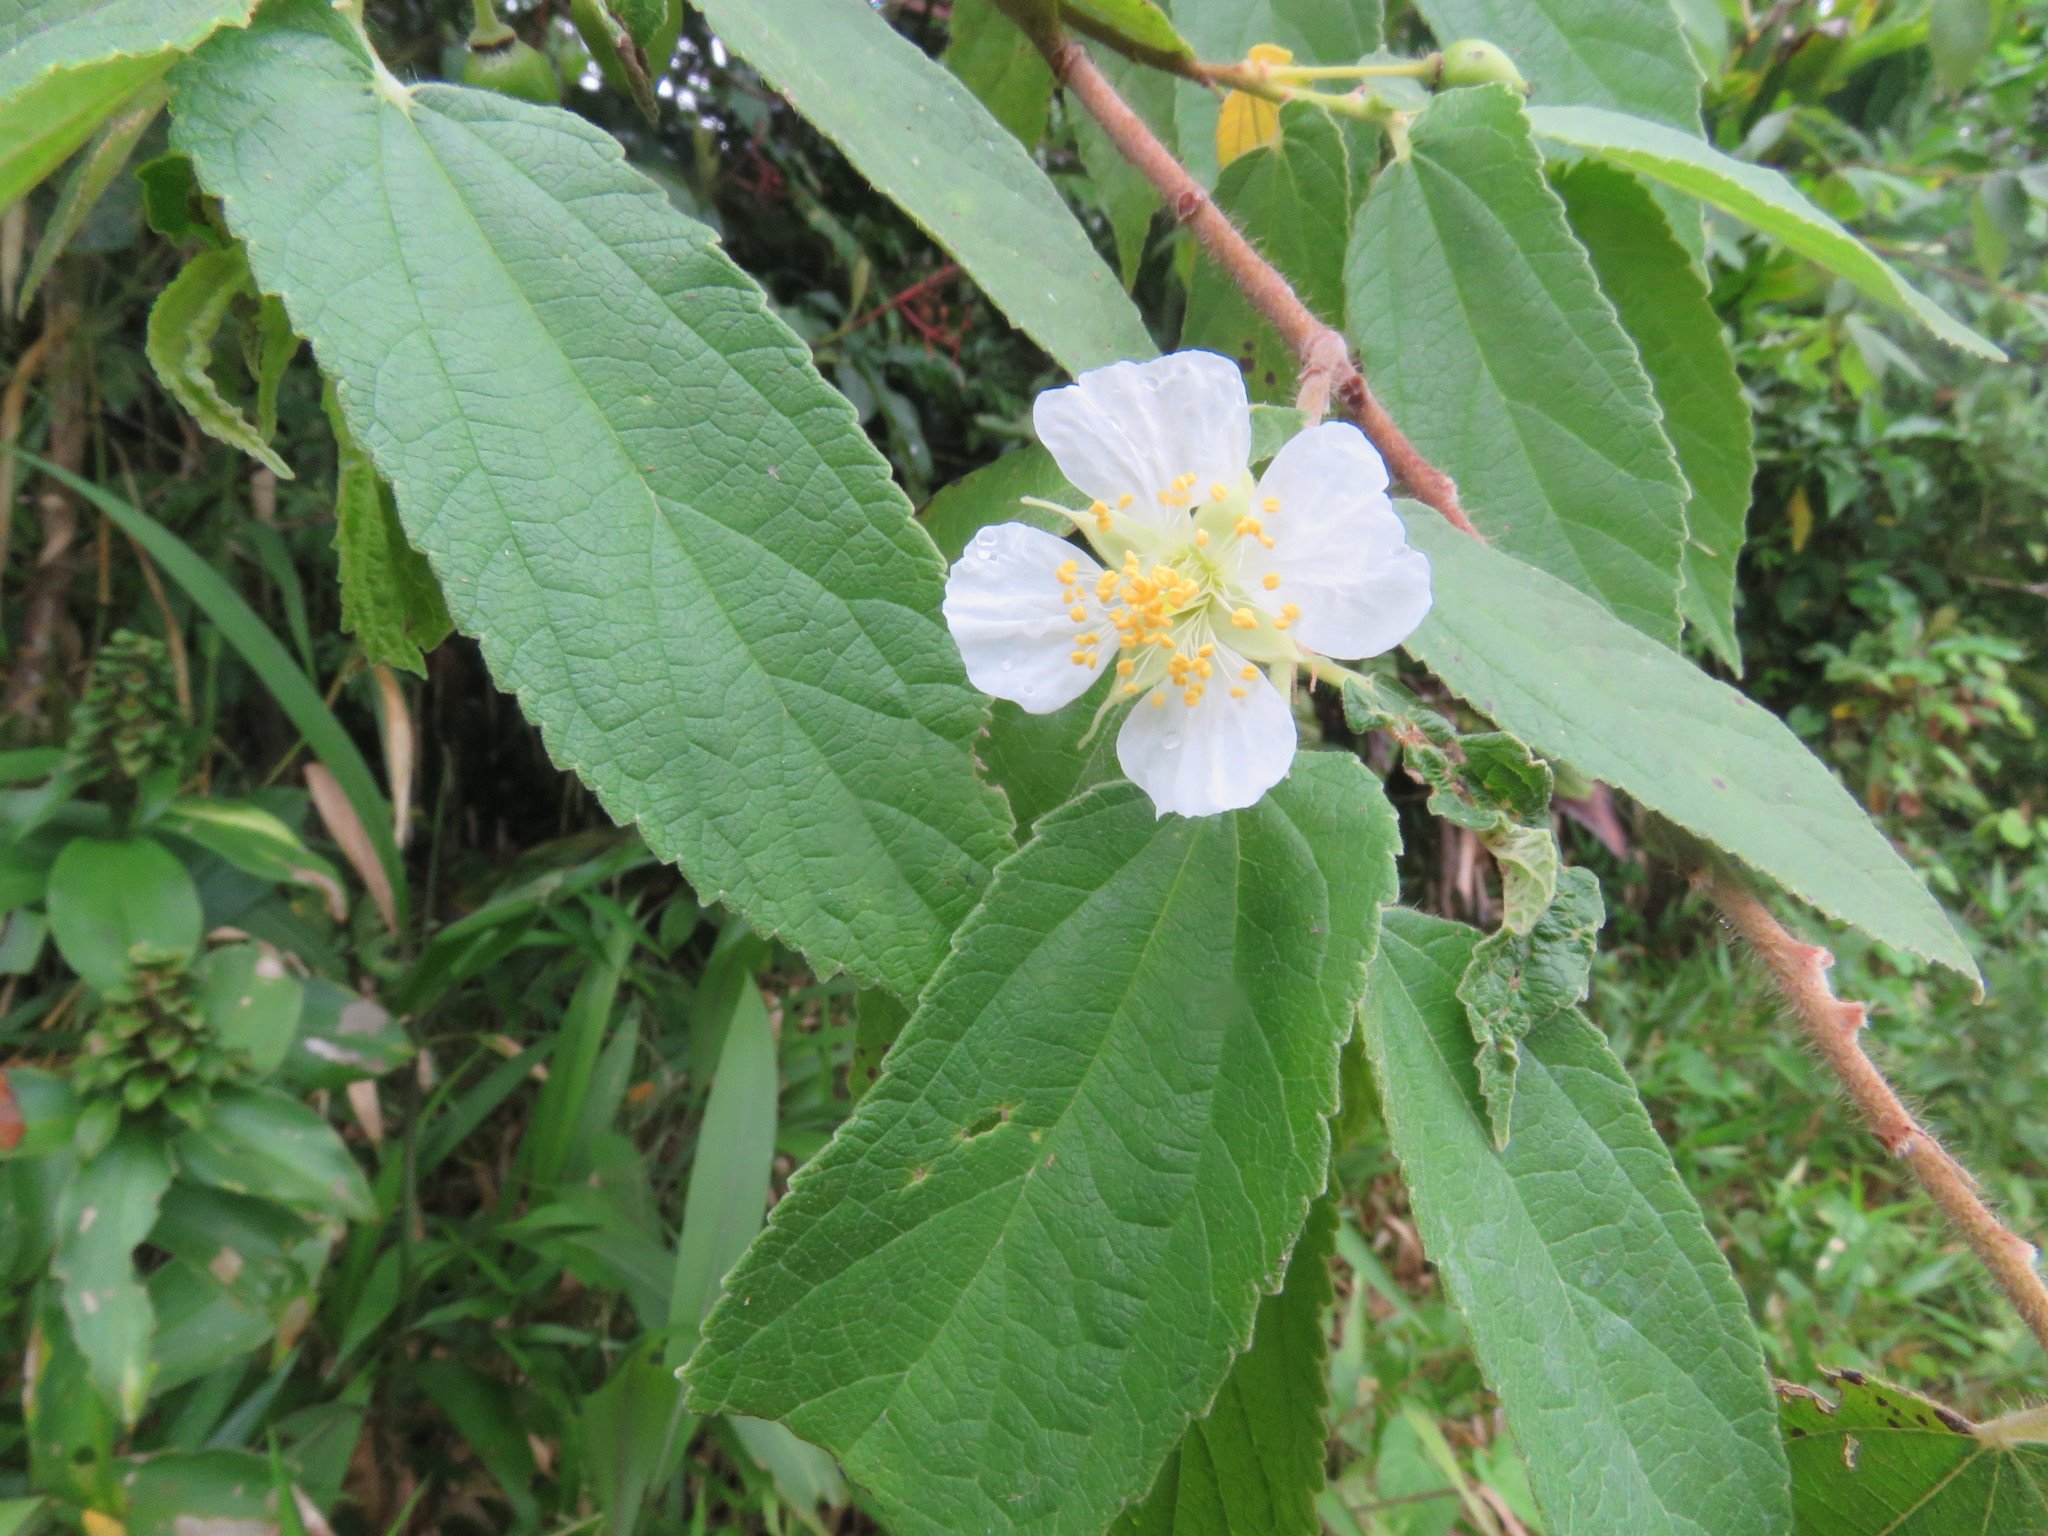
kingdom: Plantae
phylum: Tracheophyta
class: Magnoliopsida
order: Malvales
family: Muntingiaceae
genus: Muntingia
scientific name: Muntingia calabura
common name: Strawberrytree
